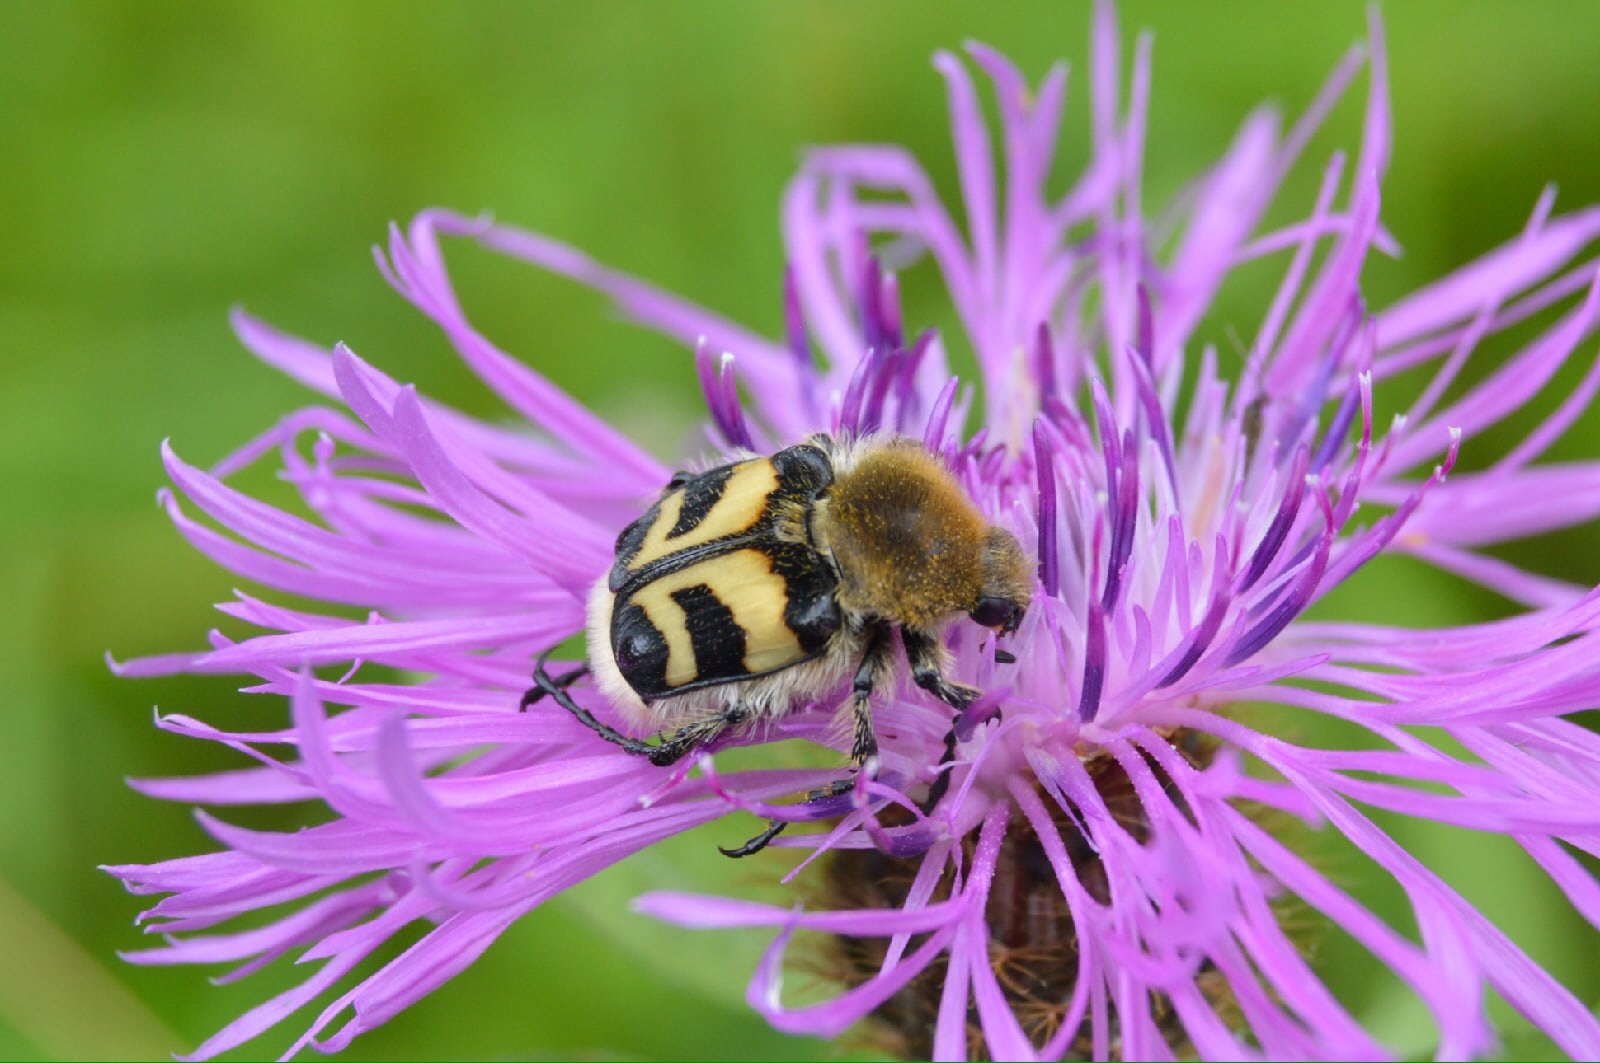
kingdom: Animalia
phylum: Arthropoda
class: Insecta
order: Coleoptera
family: Scarabaeidae
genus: Trichius
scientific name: Trichius fasciatus
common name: Bee beetle
